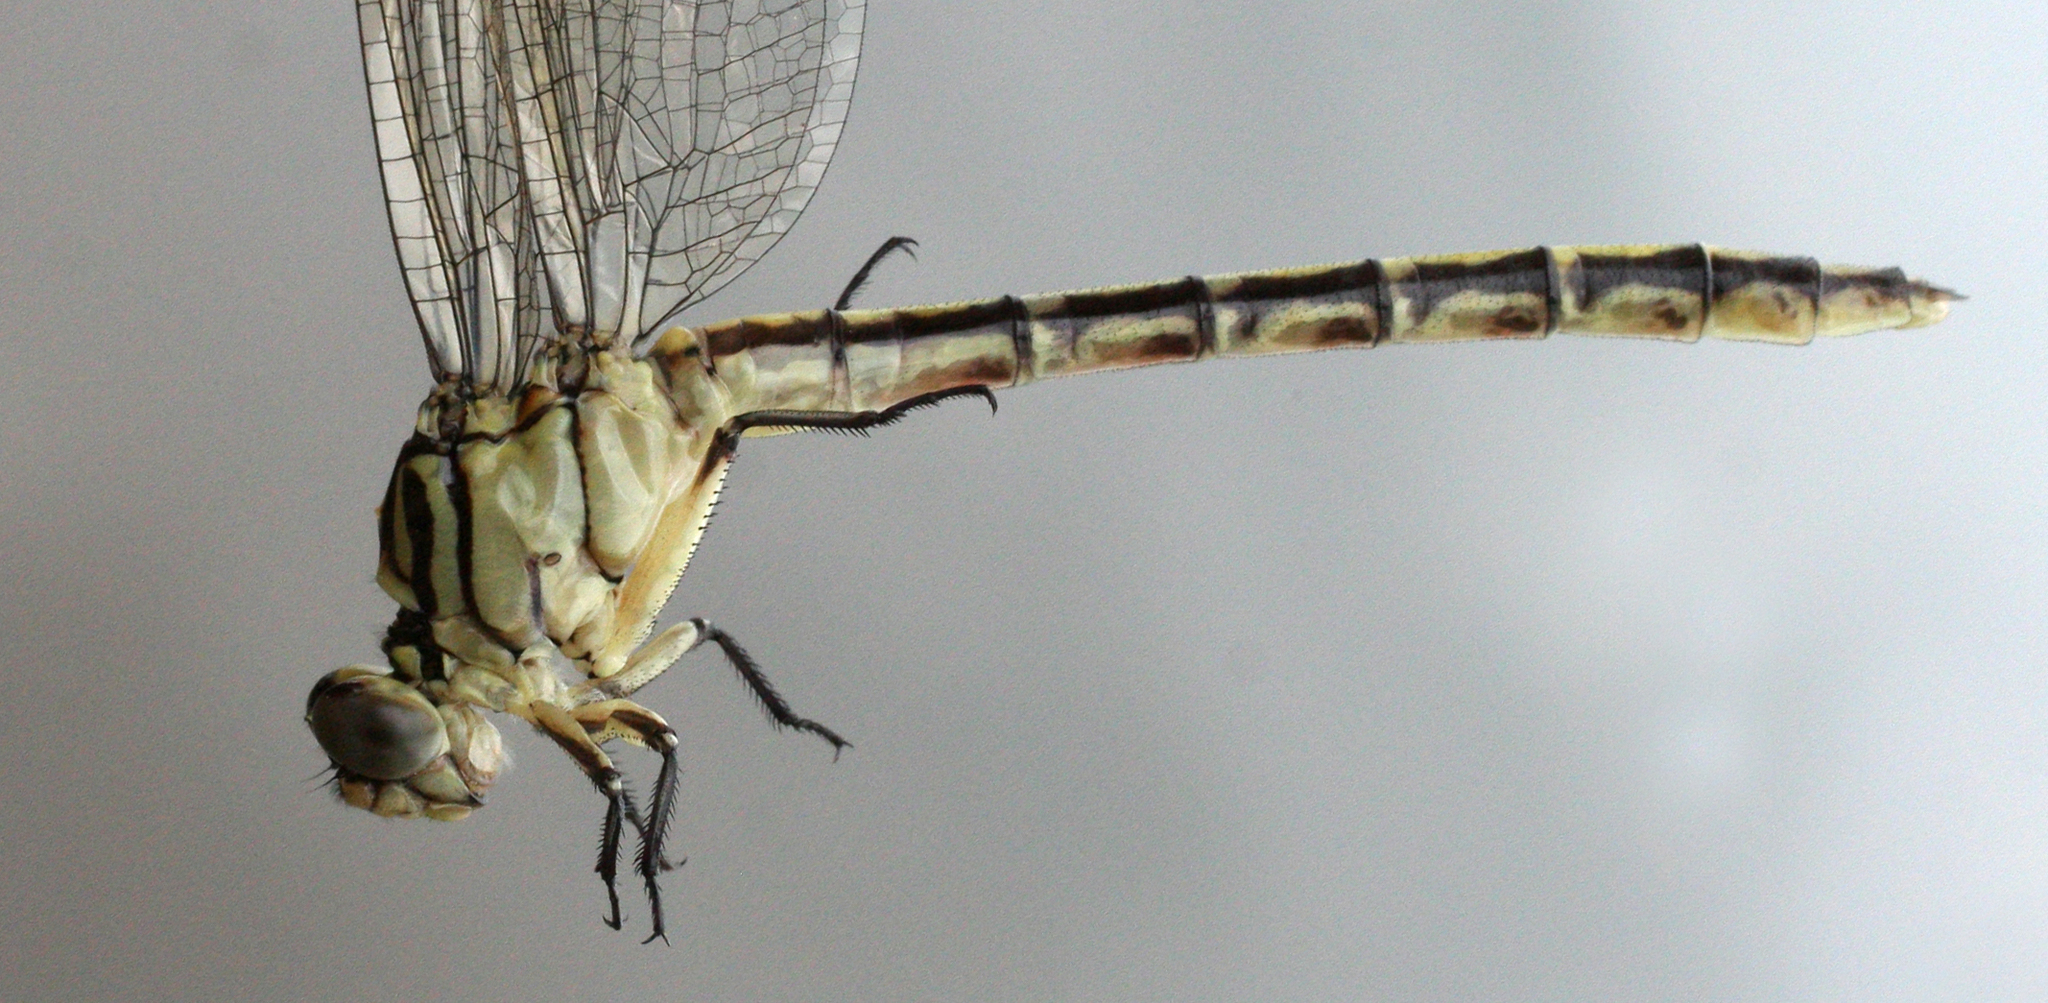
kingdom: Animalia
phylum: Arthropoda
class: Insecta
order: Odonata
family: Gomphidae
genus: Stylurus
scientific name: Stylurus flavipes
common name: River clubtail
